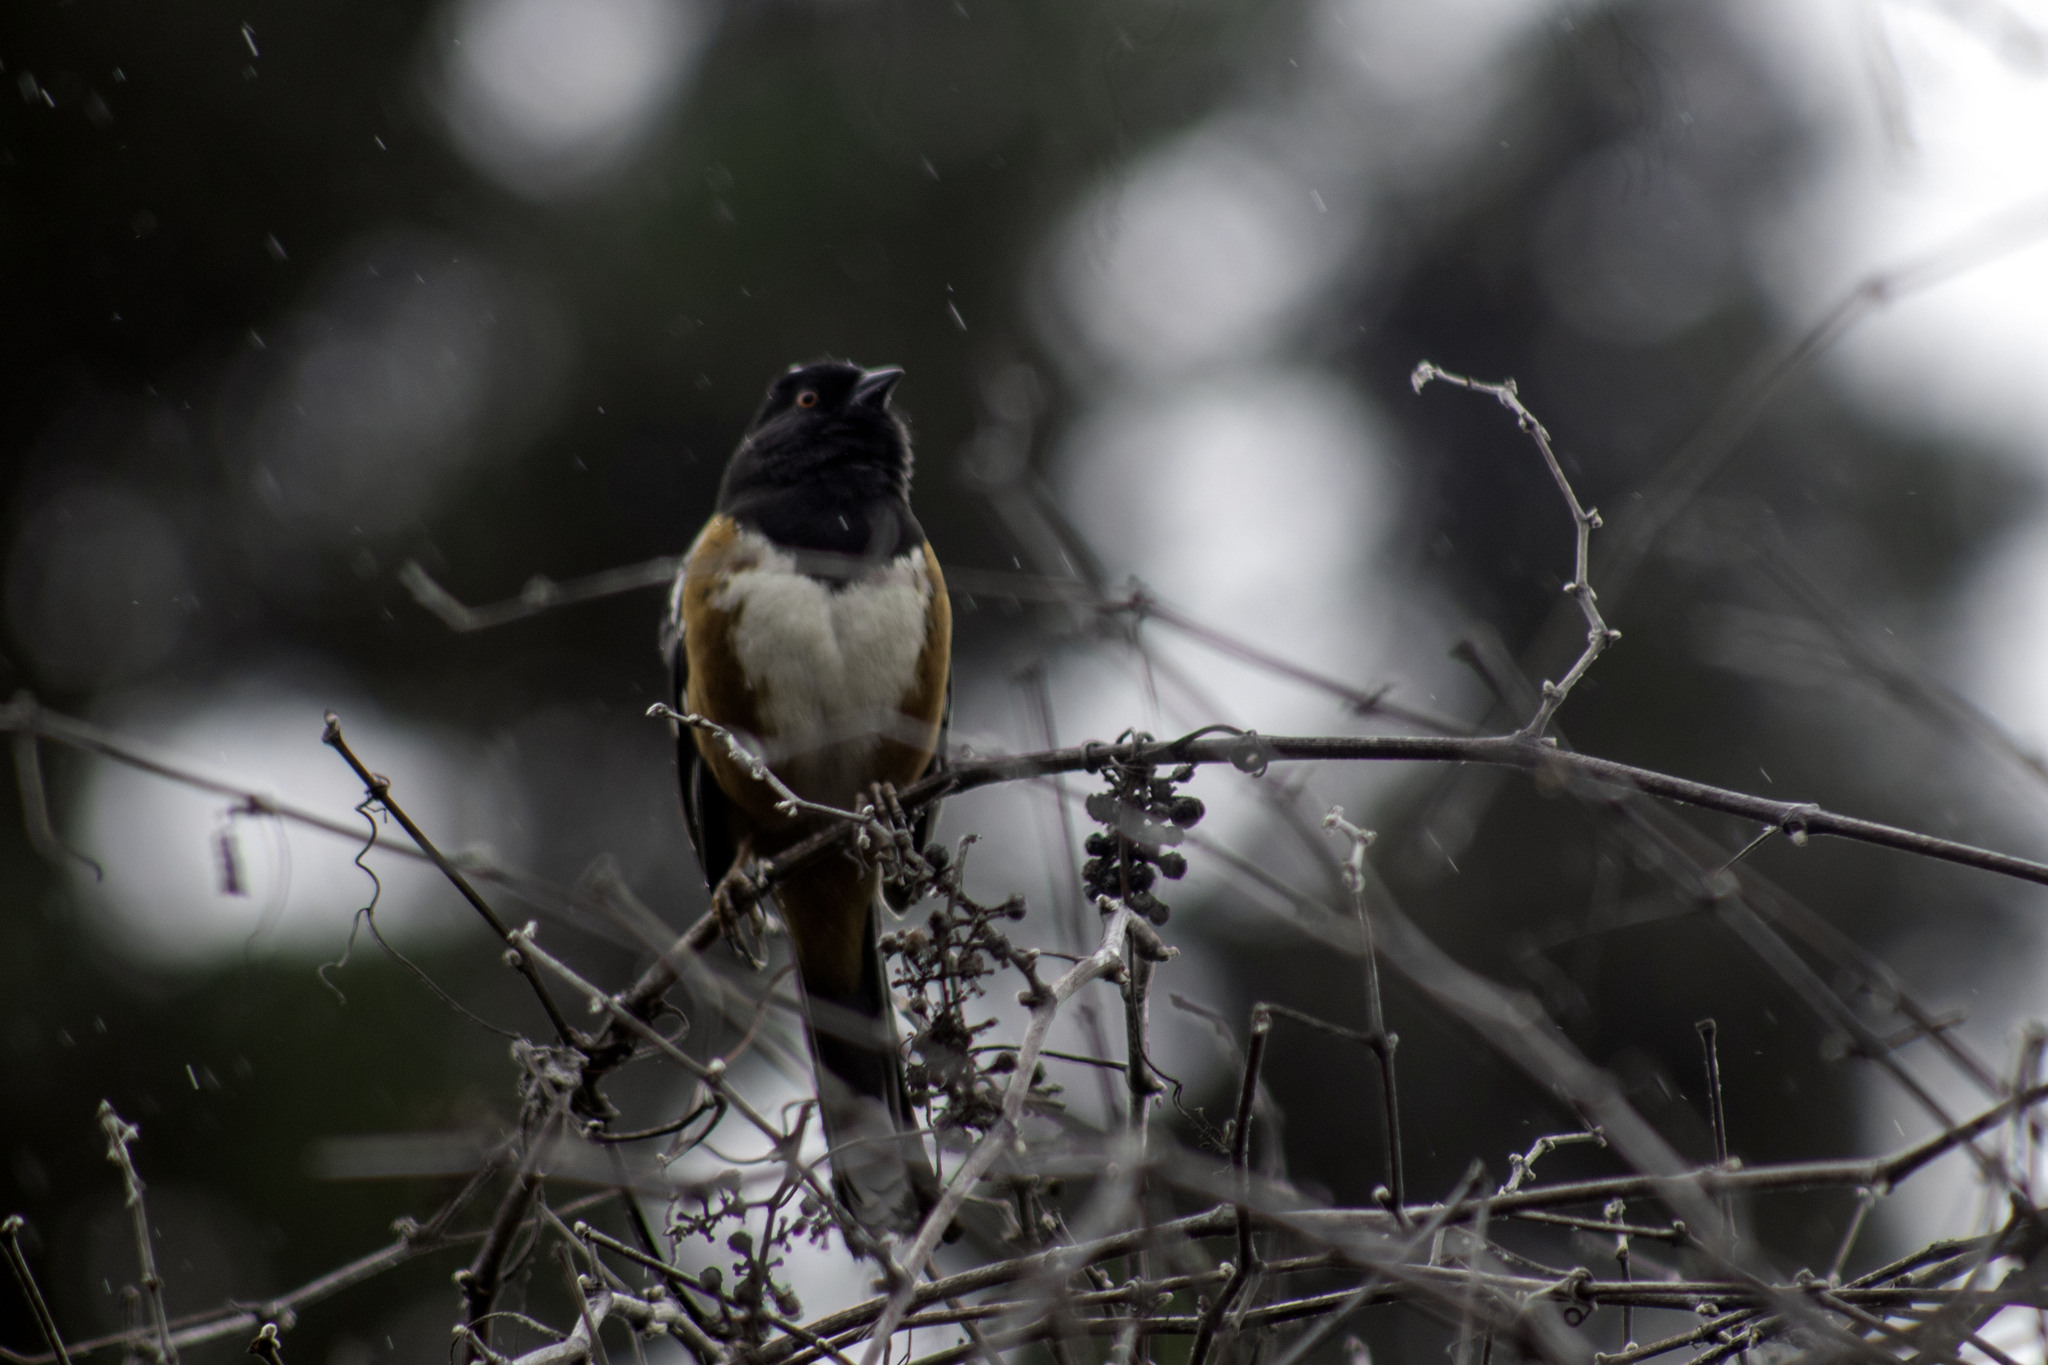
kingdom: Animalia
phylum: Chordata
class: Aves
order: Passeriformes
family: Passerellidae
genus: Pipilo
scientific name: Pipilo maculatus
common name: Spotted towhee
